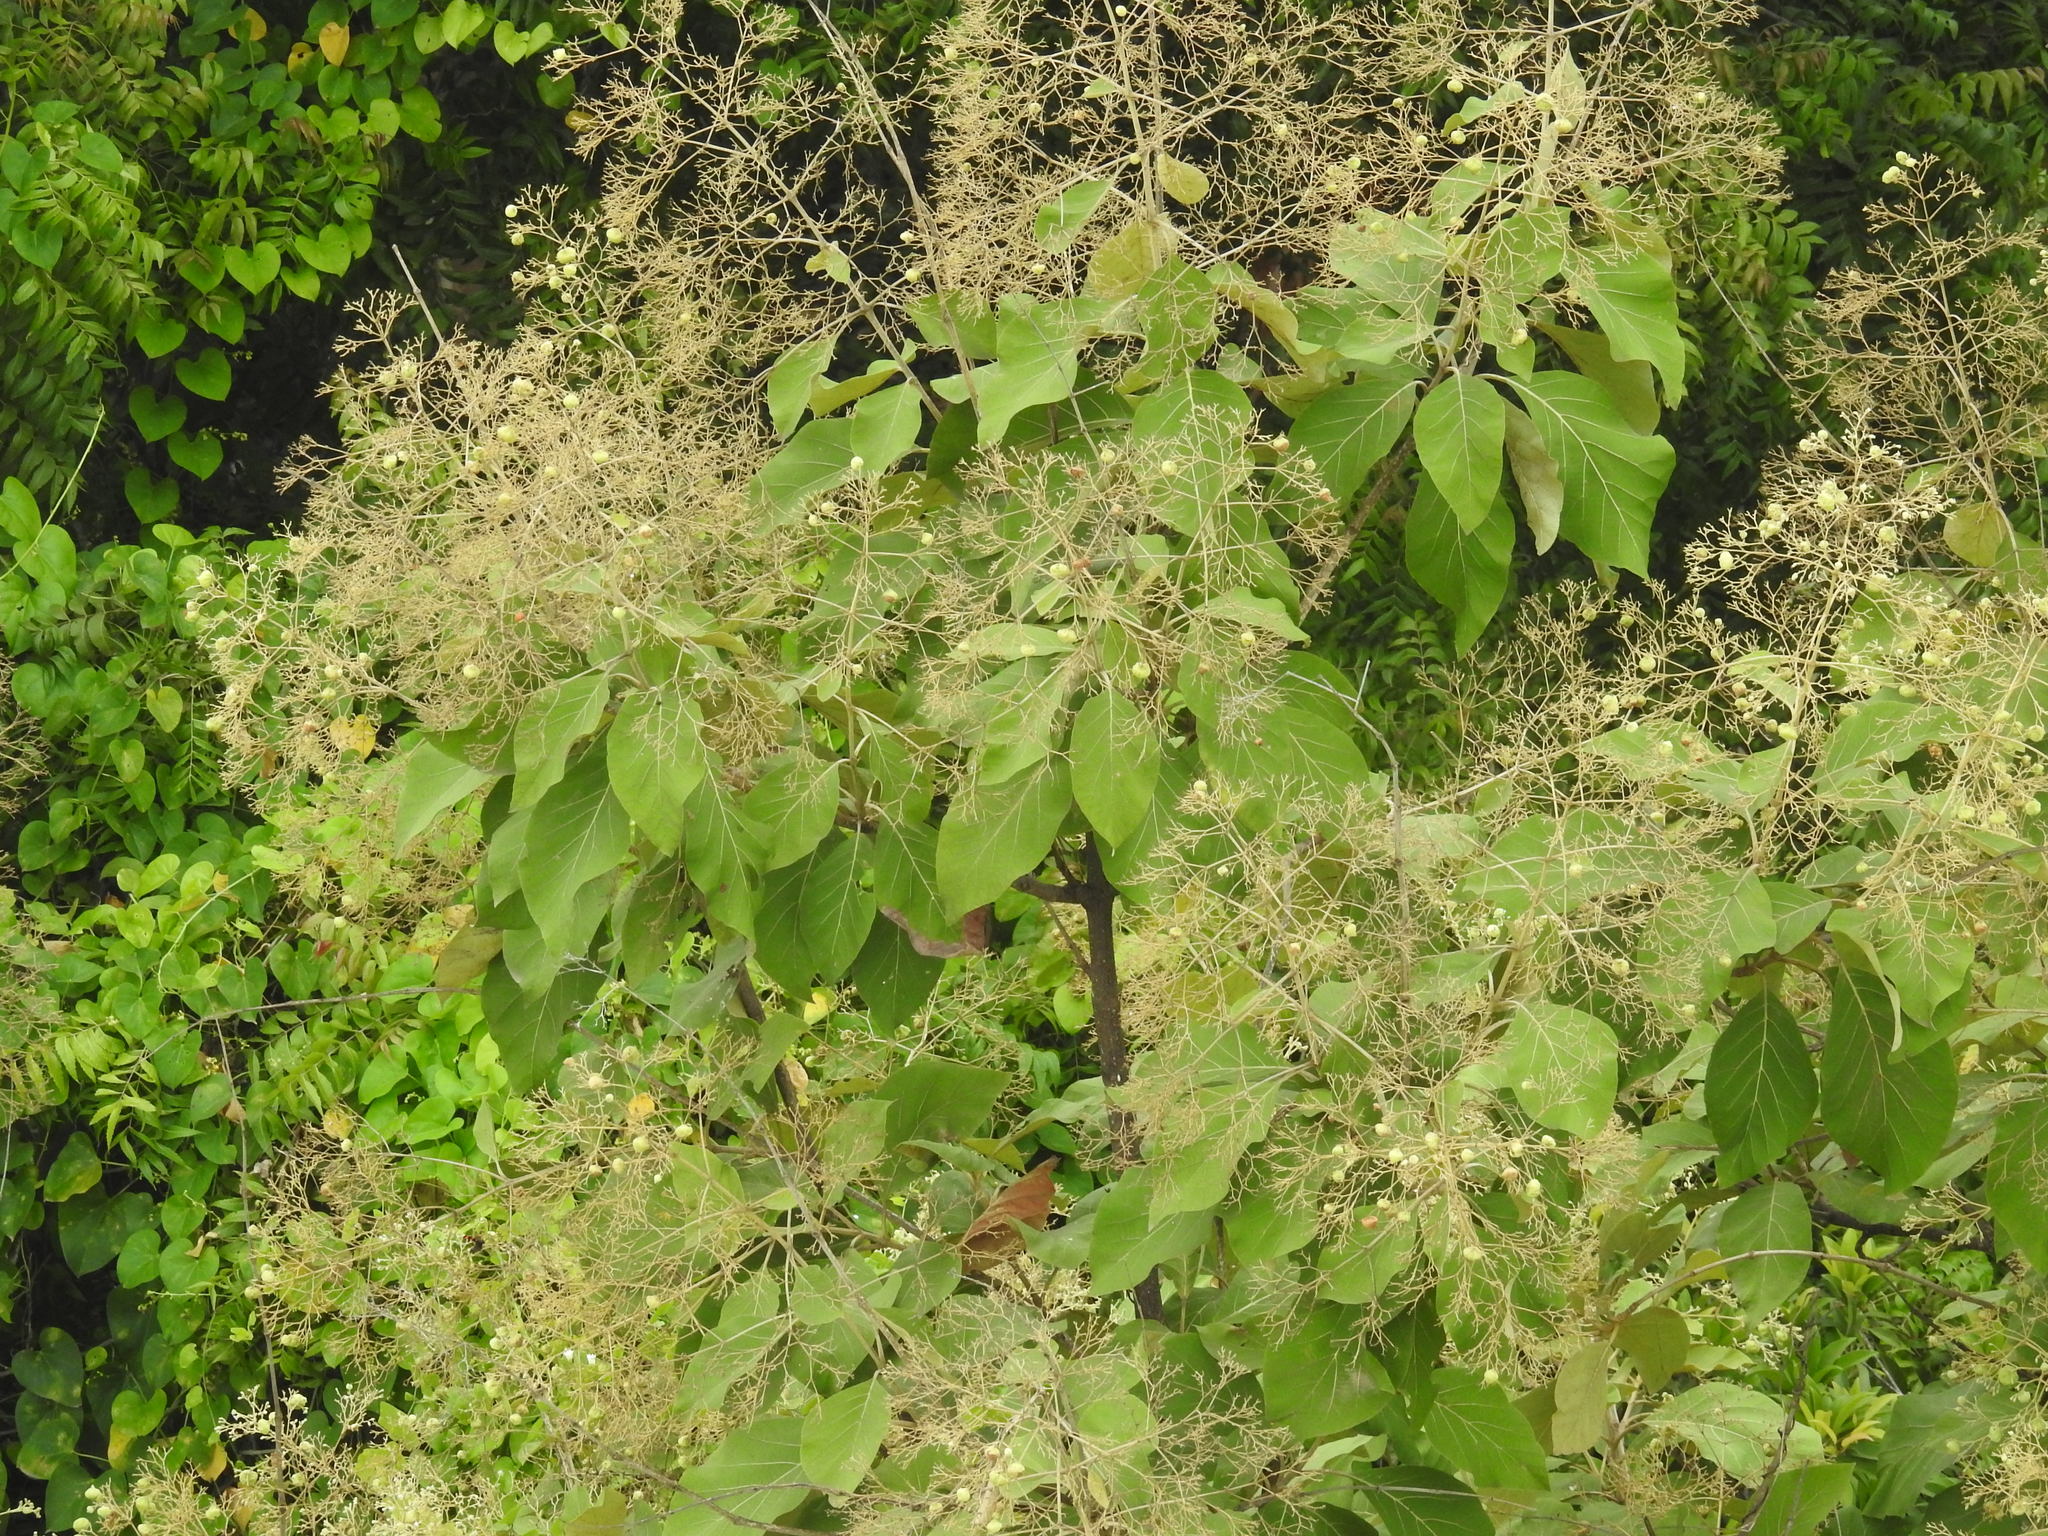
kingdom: Plantae
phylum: Tracheophyta
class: Magnoliopsida
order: Lamiales
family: Lamiaceae
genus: Tectona
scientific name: Tectona grandis
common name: Teak
